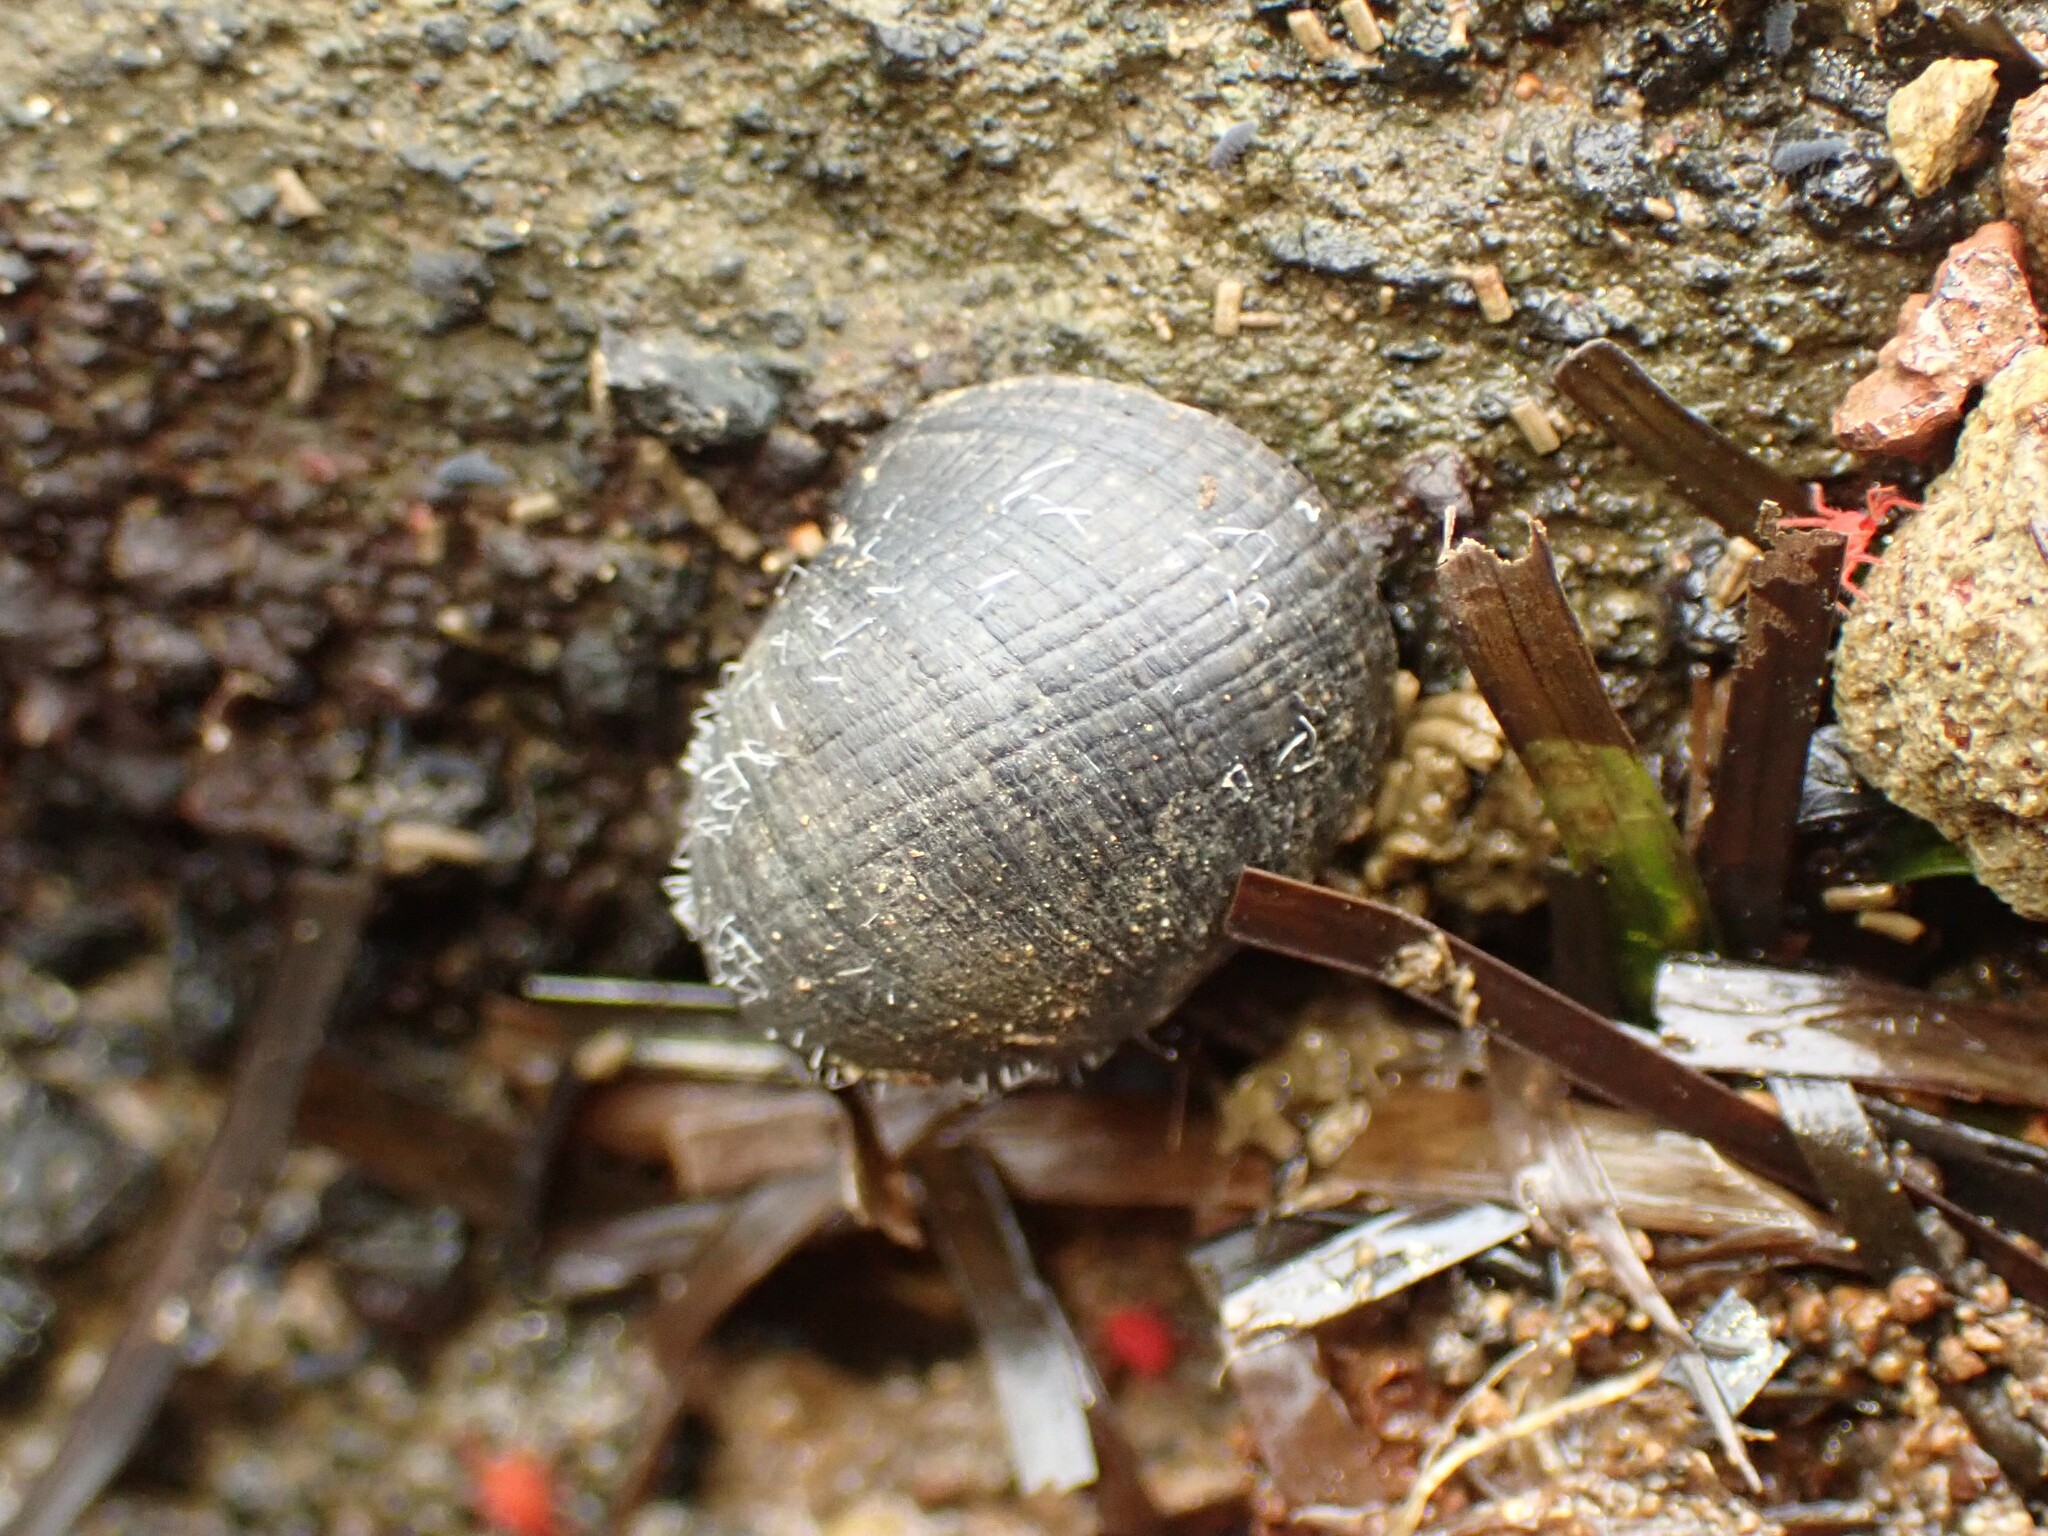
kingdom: Animalia
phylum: Mollusca
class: Gastropoda
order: Cycloneritida
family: Neritidae
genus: Nerita
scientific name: Nerita melanotragus
